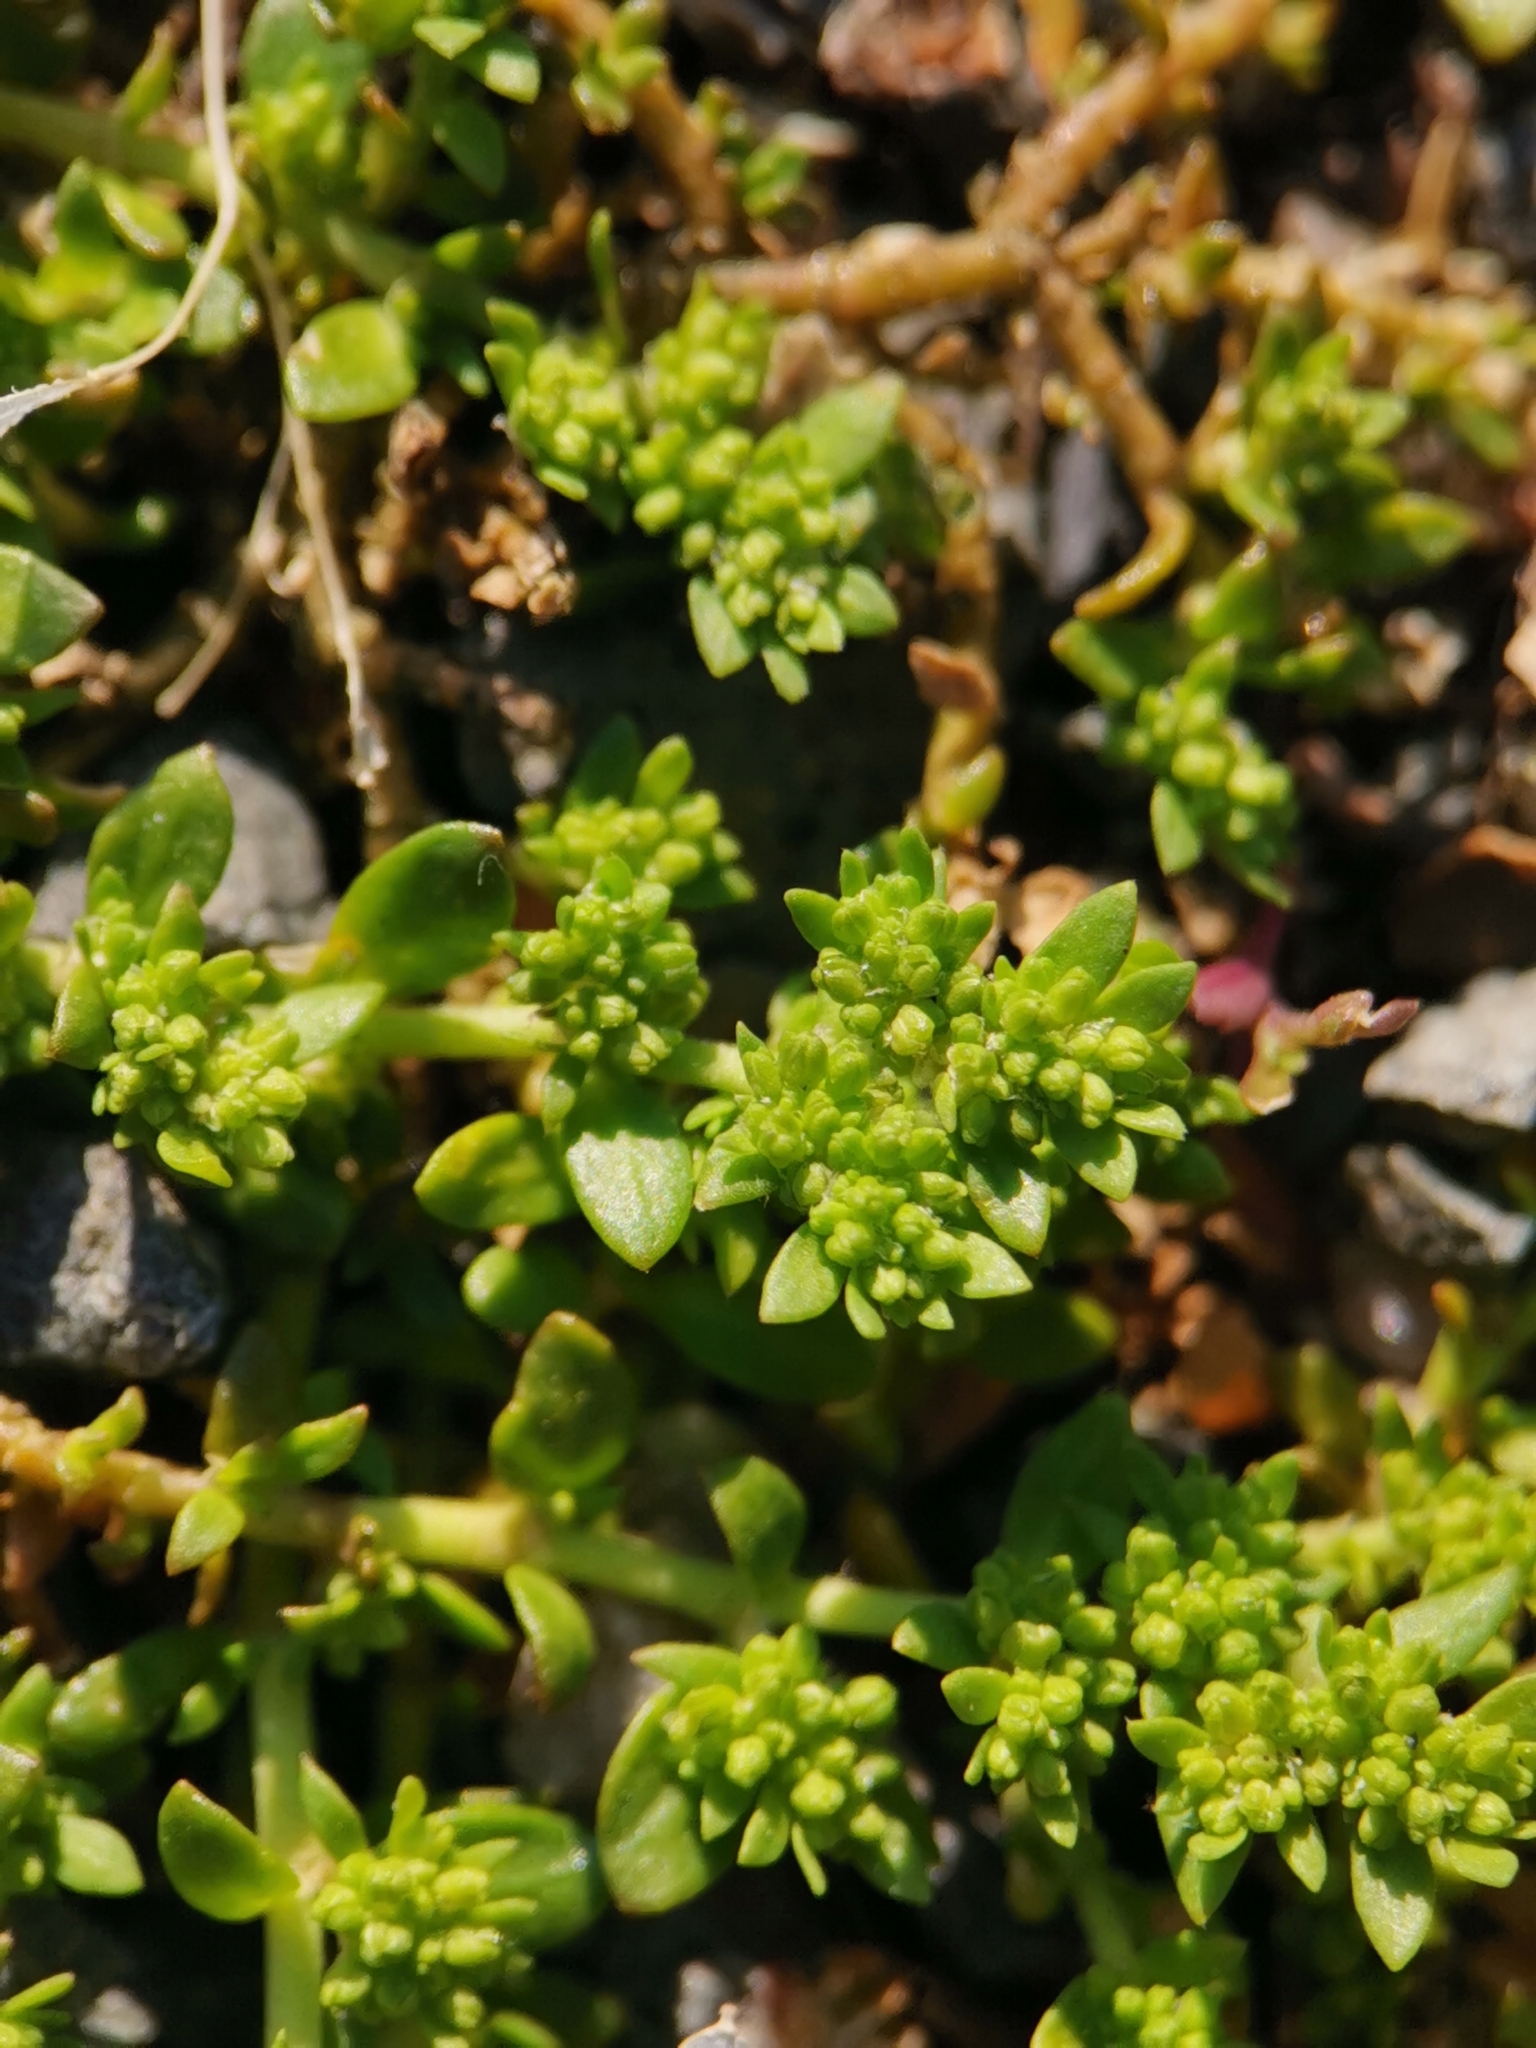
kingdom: Plantae
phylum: Tracheophyta
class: Magnoliopsida
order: Caryophyllales
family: Caryophyllaceae
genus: Herniaria
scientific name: Herniaria glabra
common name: Smooth rupturewort
